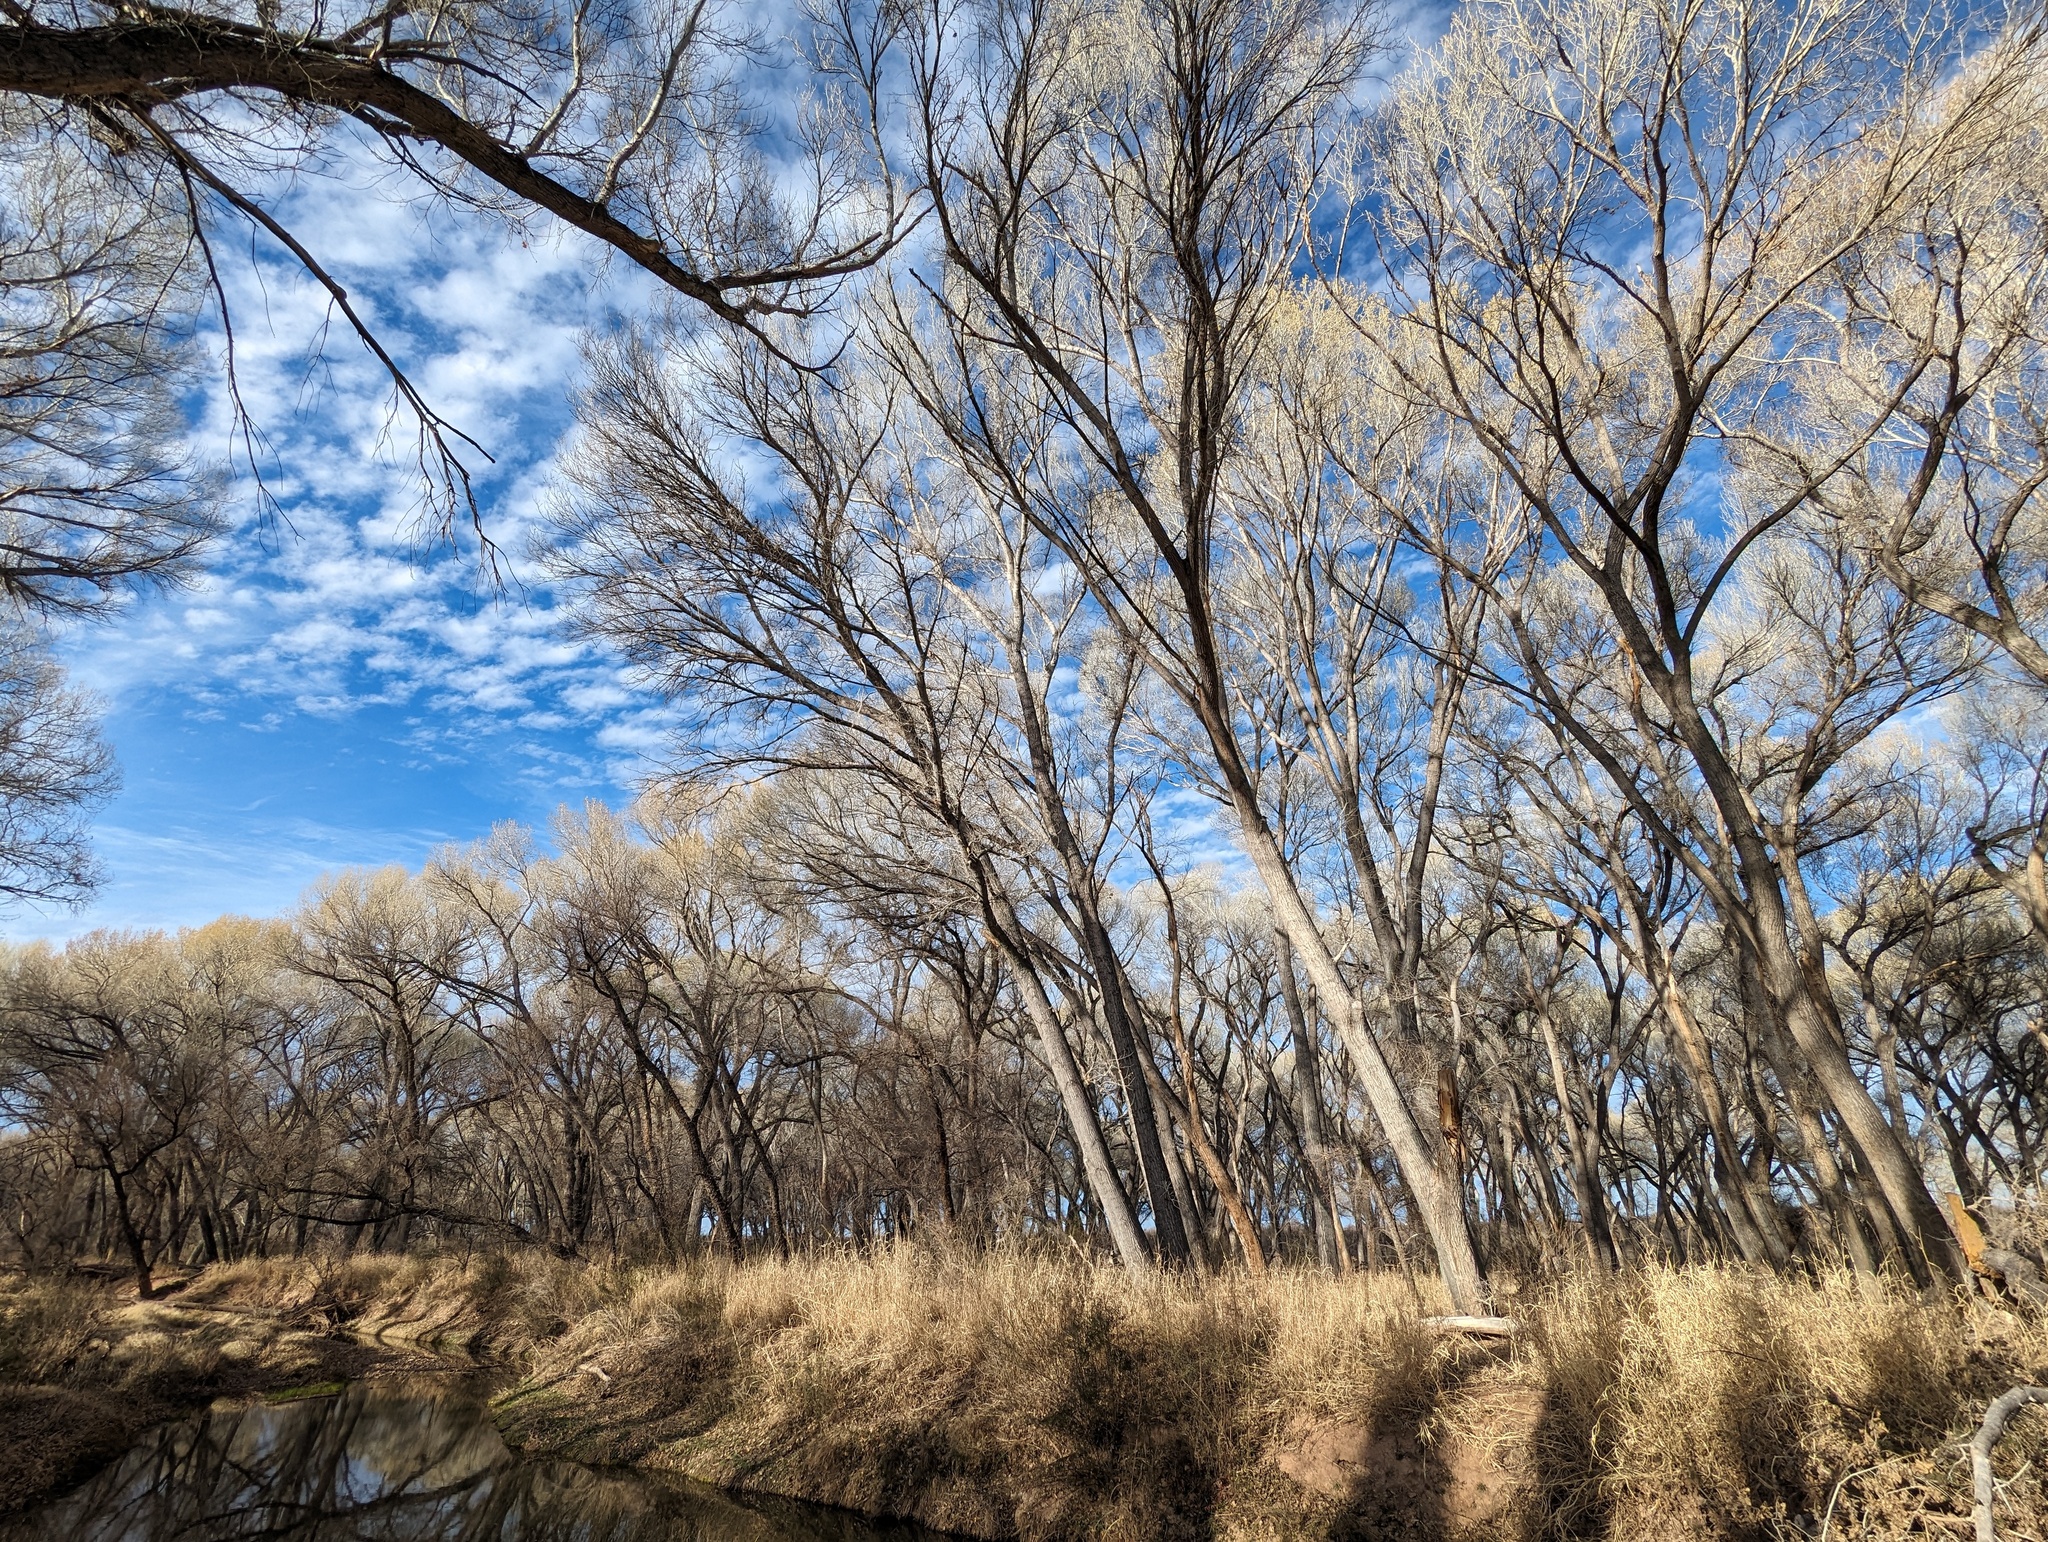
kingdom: Plantae
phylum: Tracheophyta
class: Magnoliopsida
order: Malpighiales
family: Salicaceae
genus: Populus
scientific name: Populus fremontii
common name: Fremont's cottonwood
